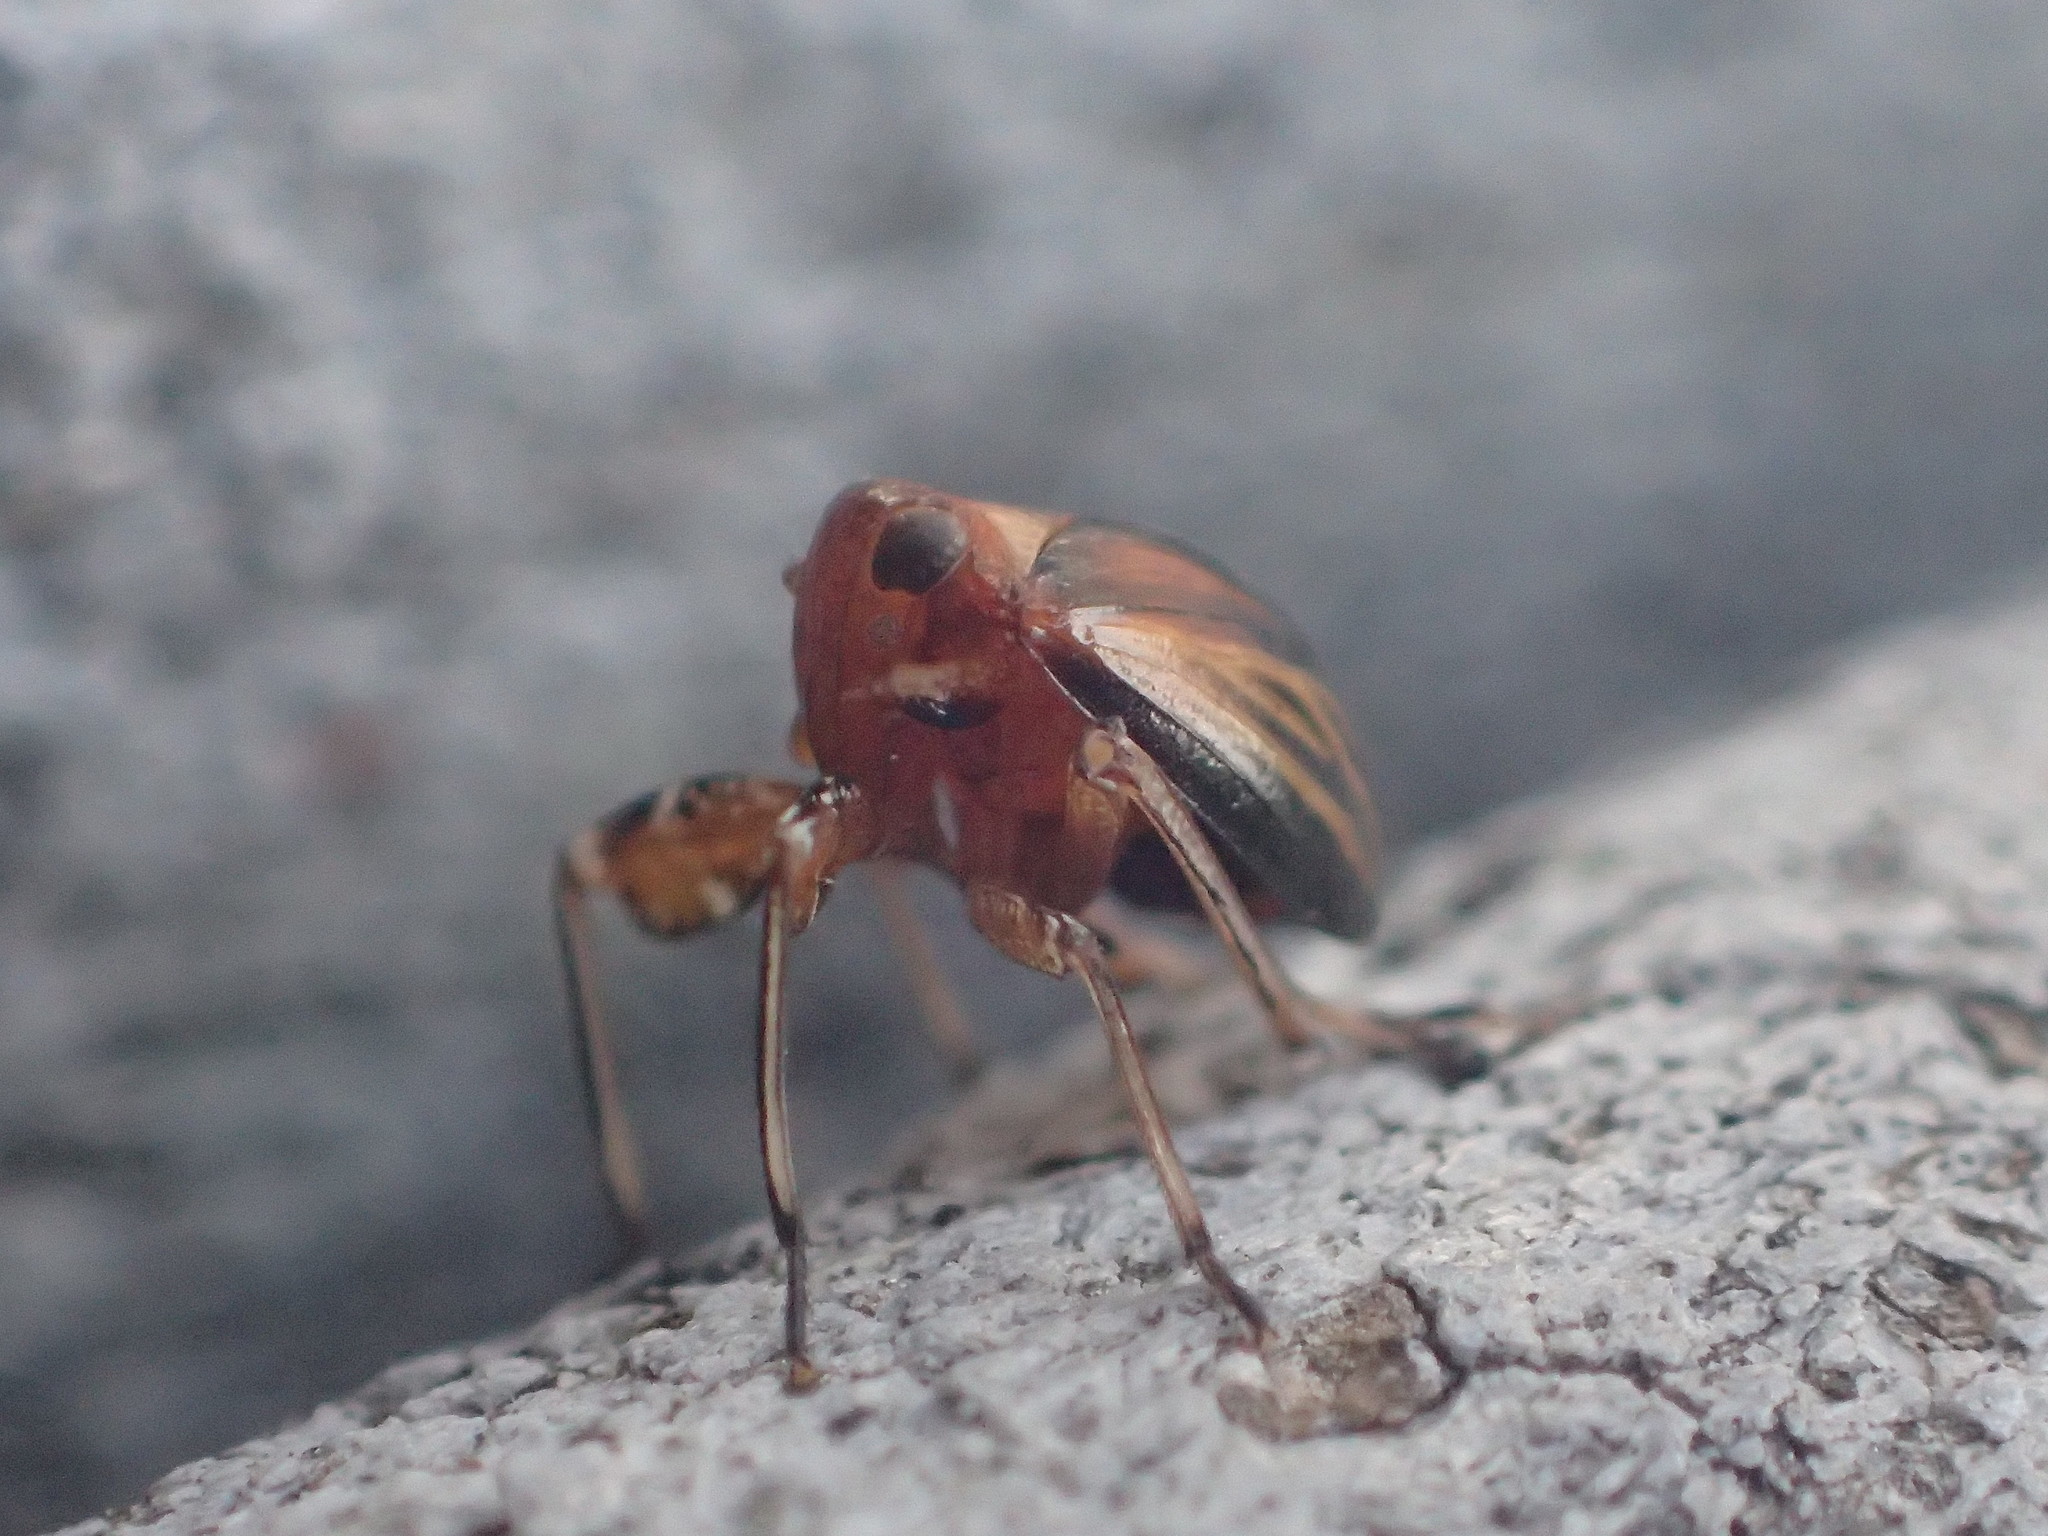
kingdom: Animalia
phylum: Arthropoda
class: Insecta
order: Hemiptera
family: Achilidae
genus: Isodaemon
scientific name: Isodaemon orontes
